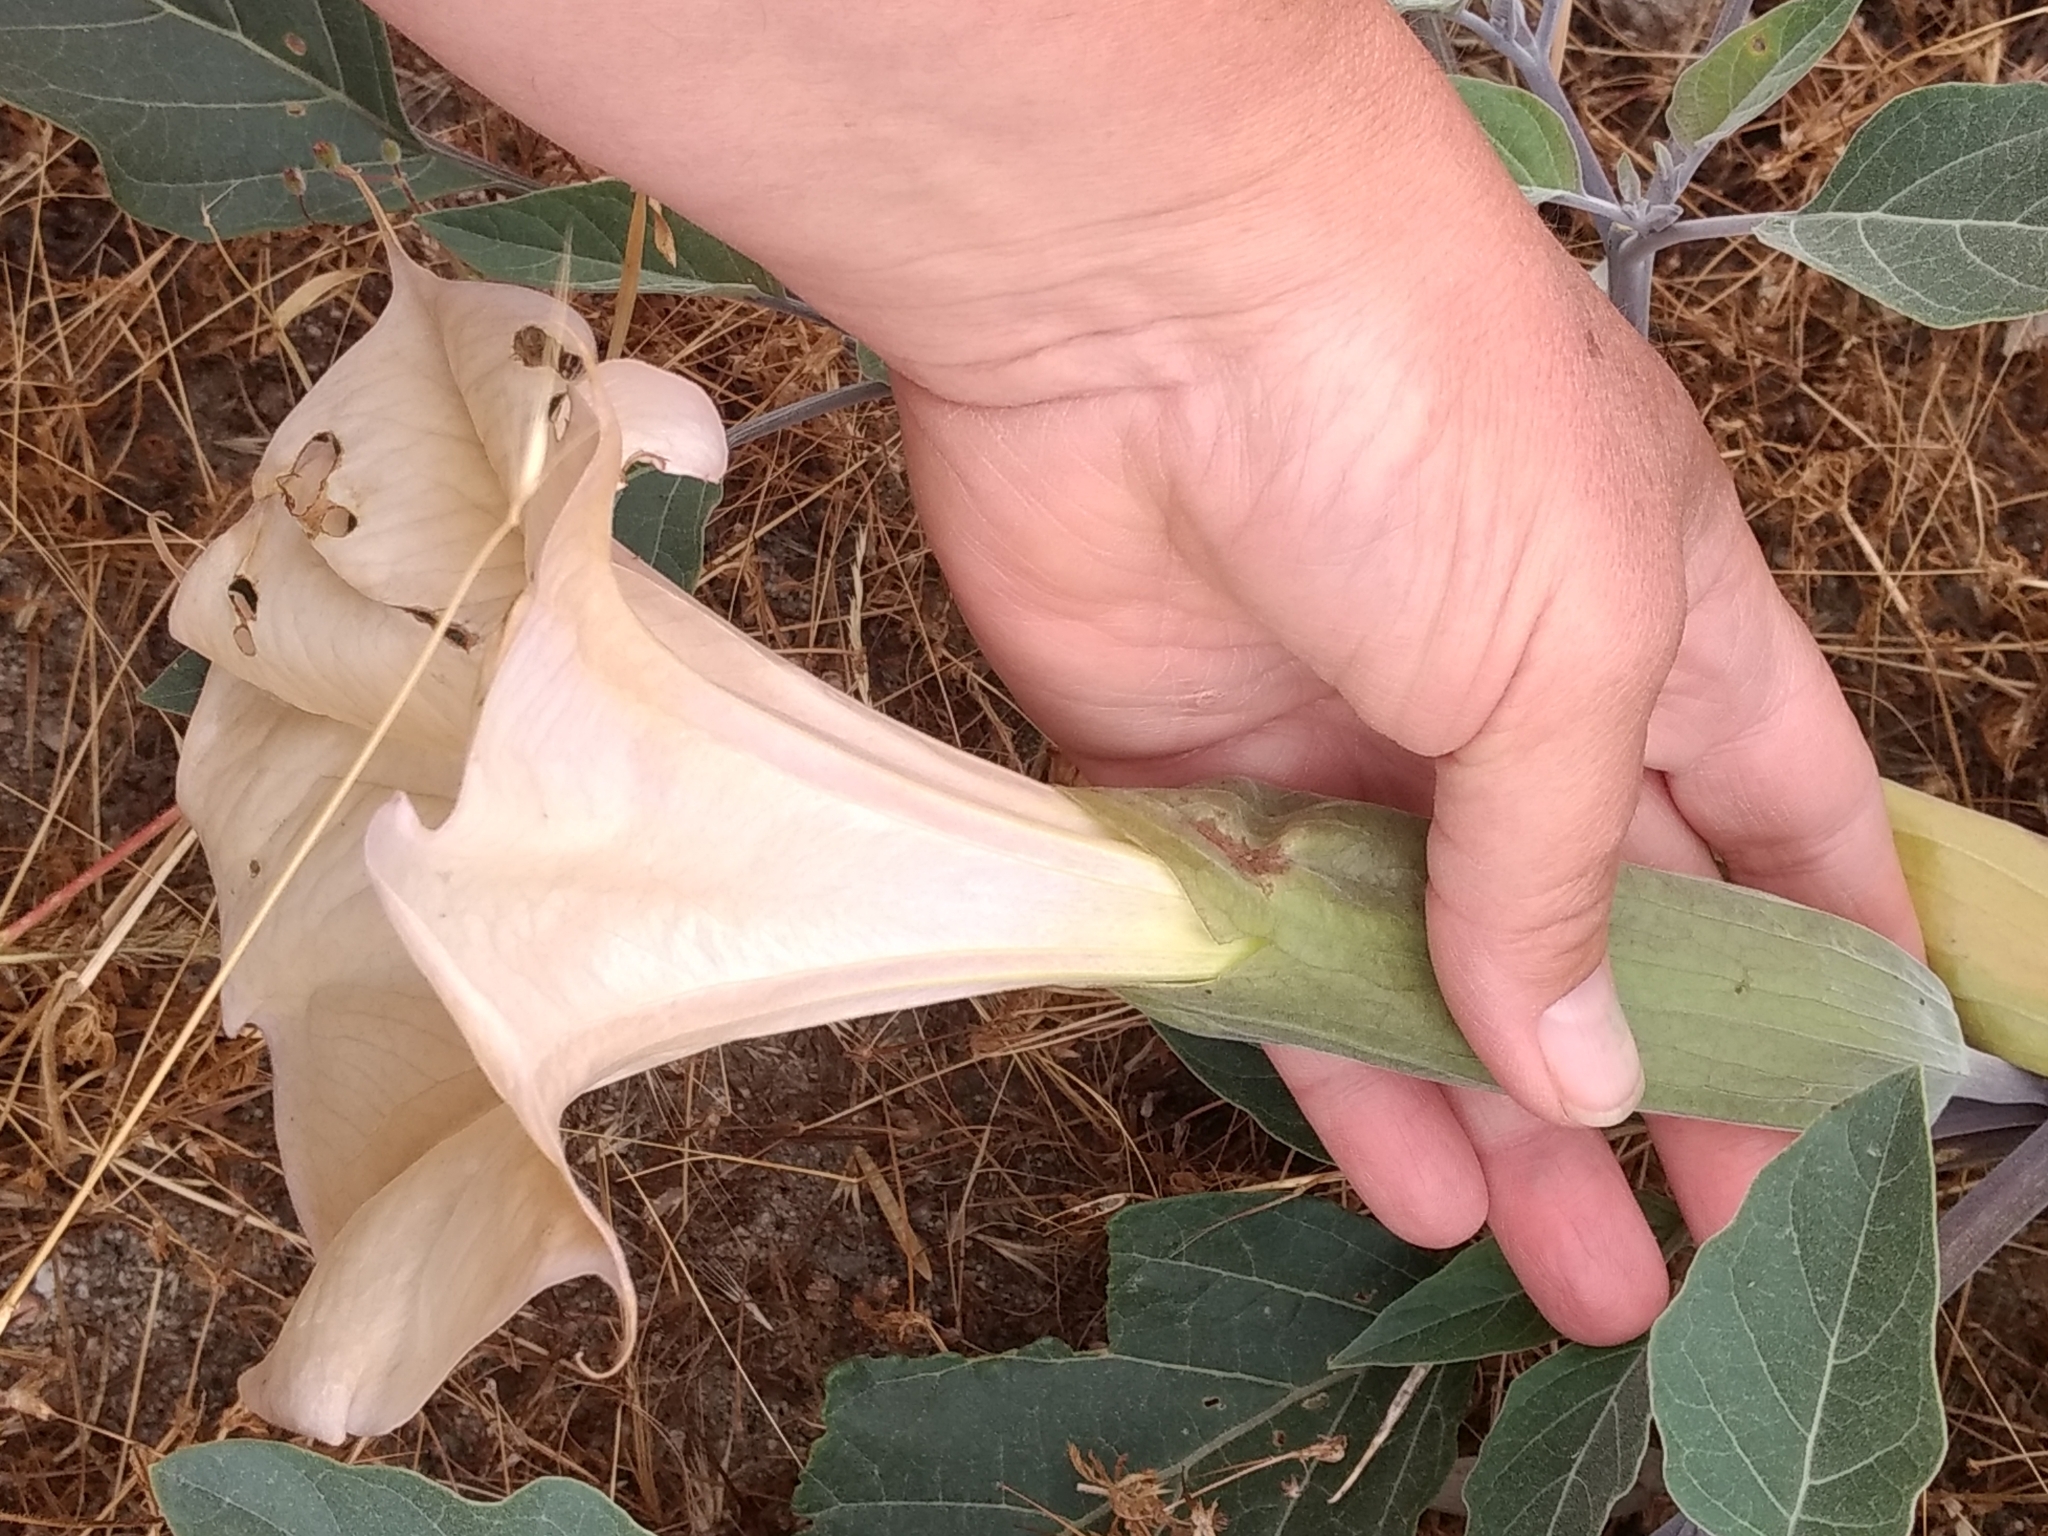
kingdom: Plantae
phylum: Tracheophyta
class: Magnoliopsida
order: Solanales
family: Solanaceae
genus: Datura
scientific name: Datura wrightii
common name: Sacred thorn-apple
